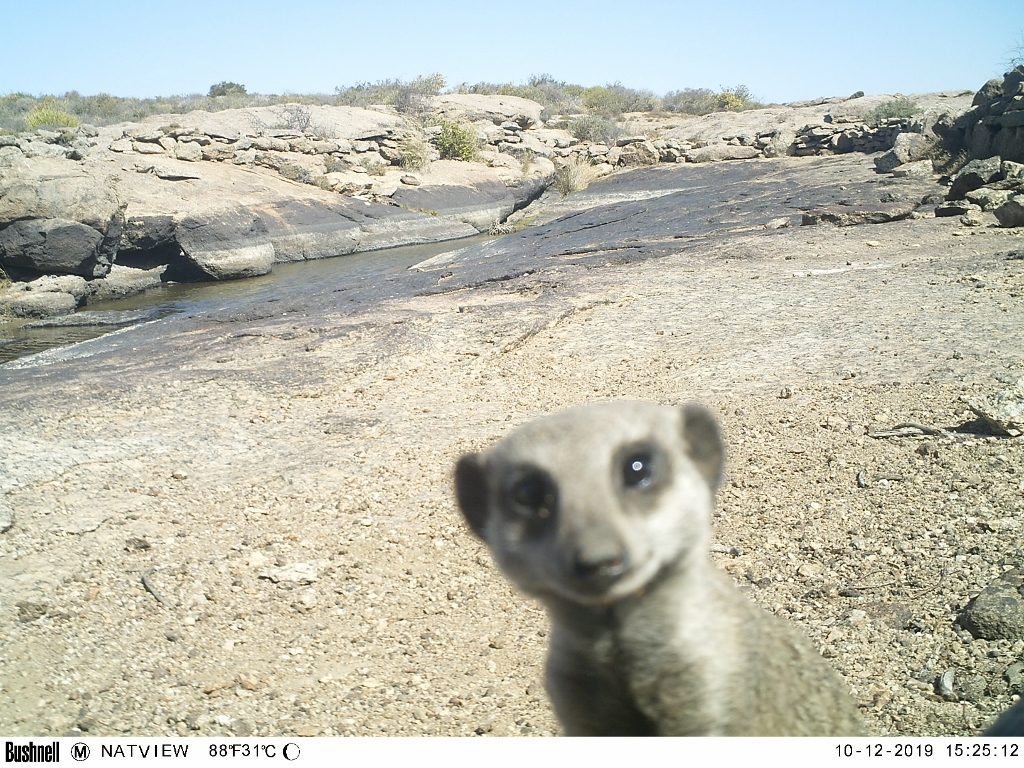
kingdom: Animalia
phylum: Chordata
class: Mammalia
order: Carnivora
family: Herpestidae
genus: Suricata
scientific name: Suricata suricatta
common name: Meerkat
